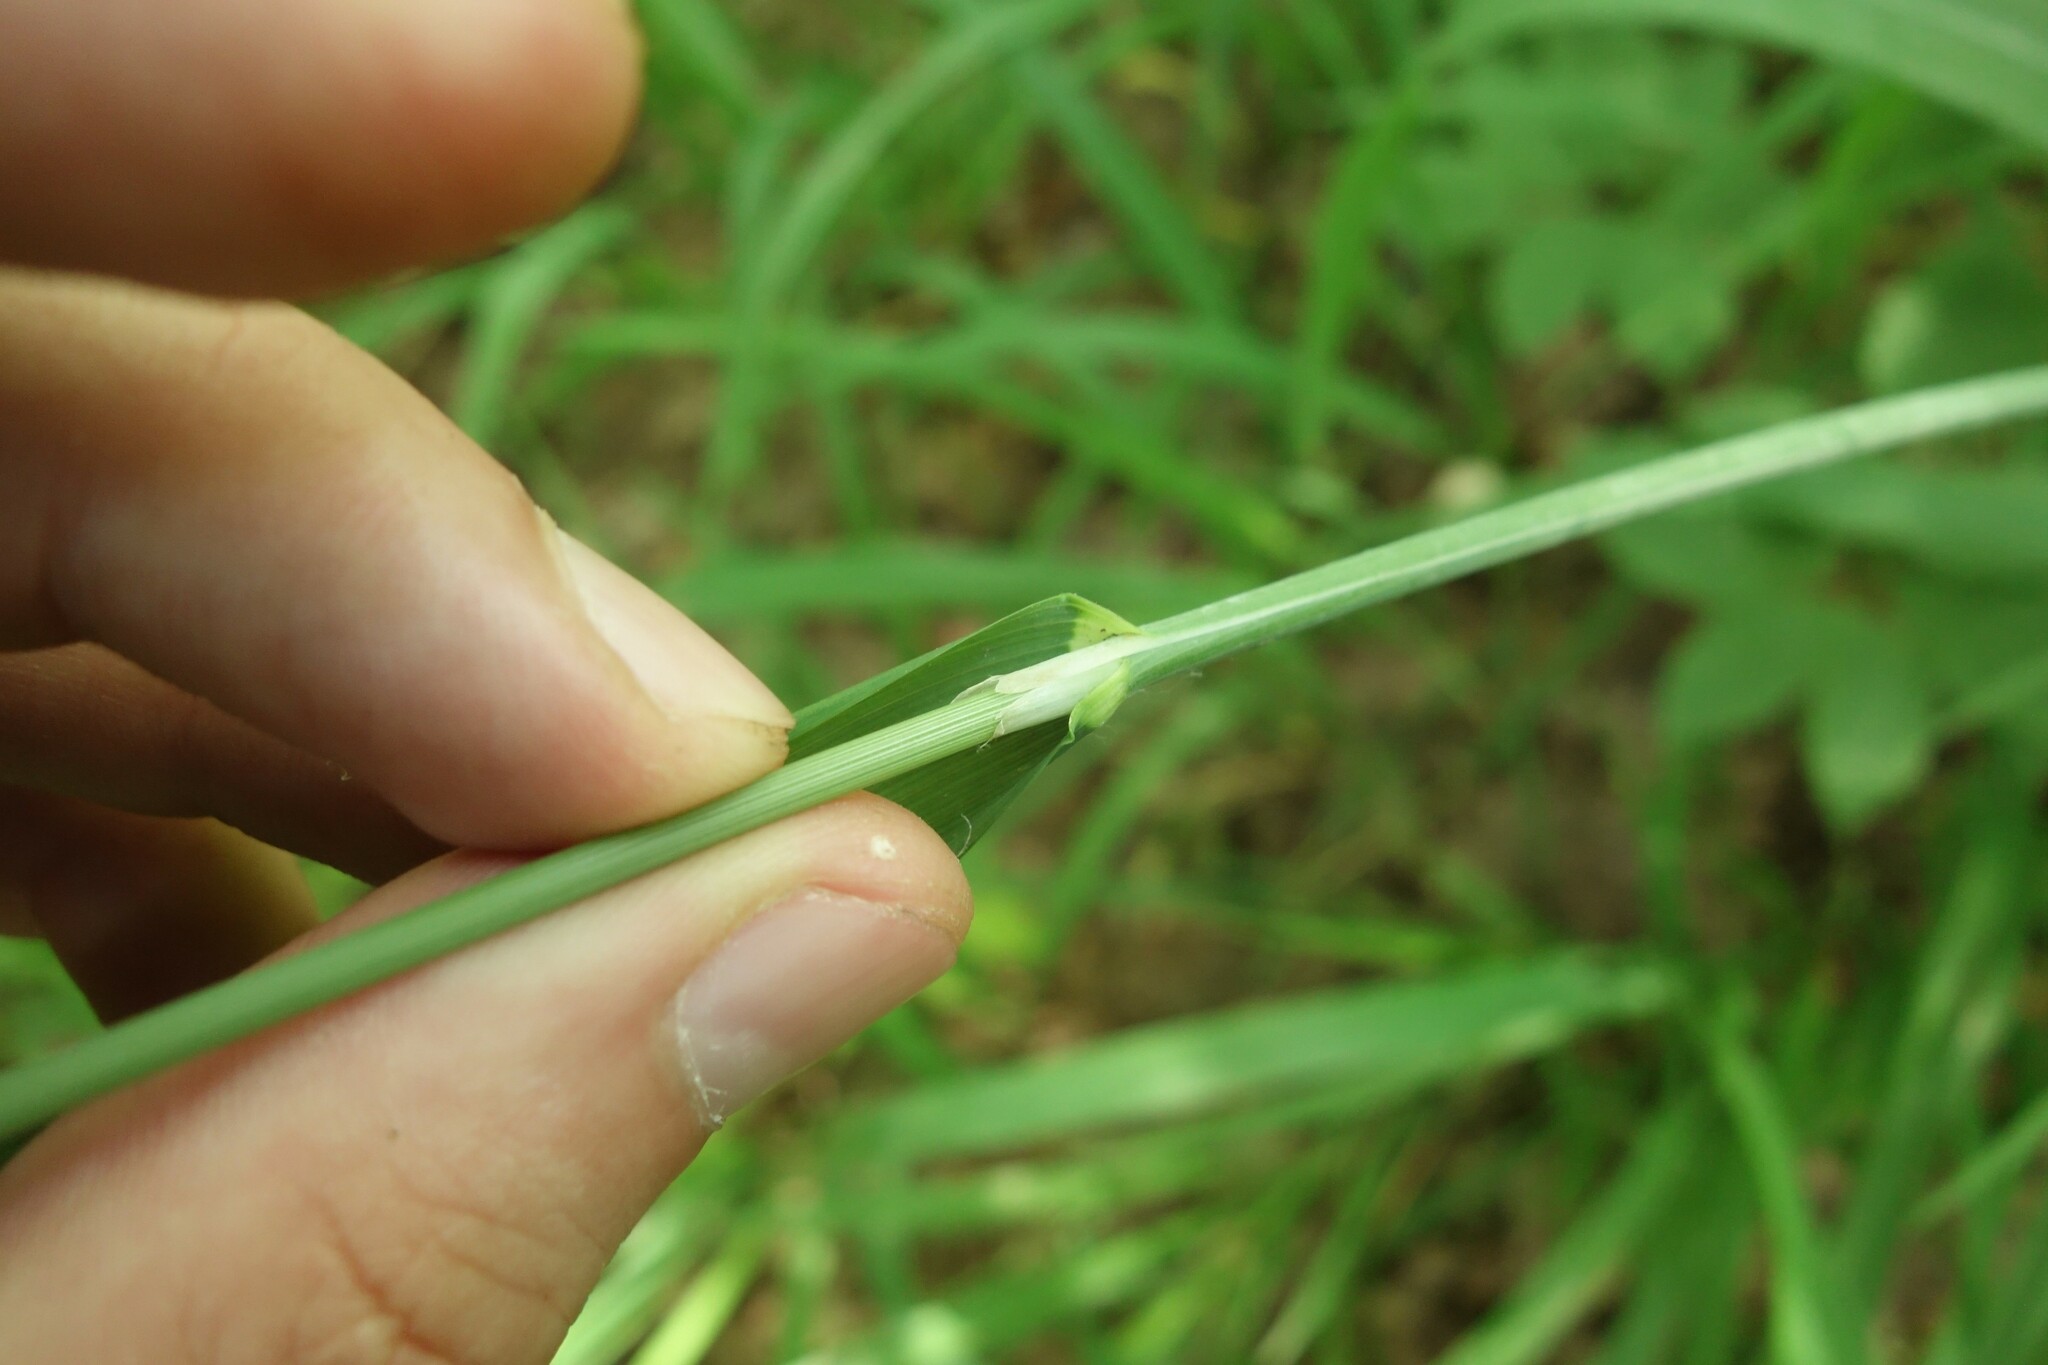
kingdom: Plantae
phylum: Tracheophyta
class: Liliopsida
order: Poales
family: Poaceae
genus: Milium
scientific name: Milium effusum
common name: Wood millet
